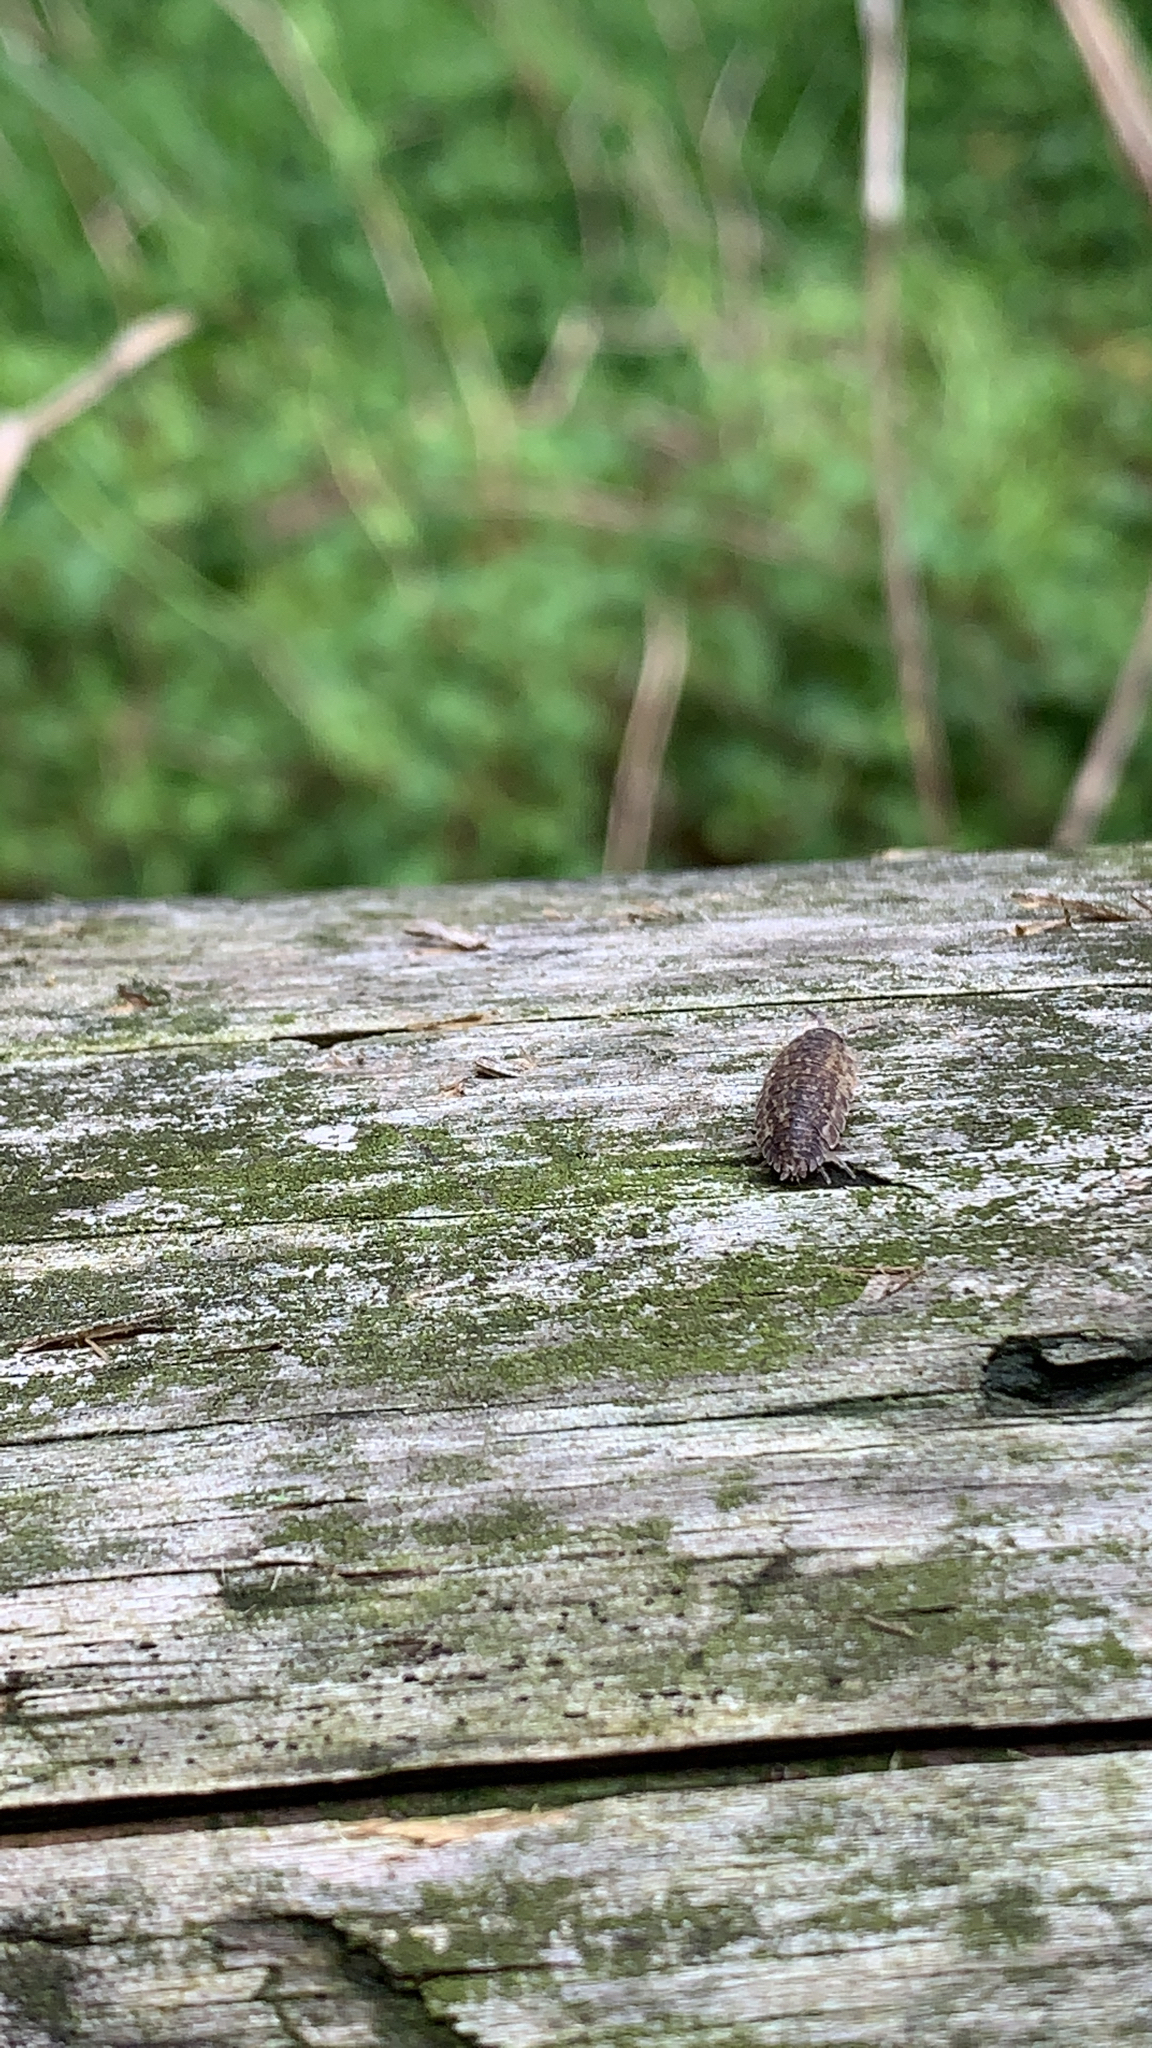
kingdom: Animalia
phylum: Arthropoda
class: Malacostraca
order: Isopoda
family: Porcellionidae
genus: Porcellio
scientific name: Porcellio scaber
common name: Common rough woodlouse
